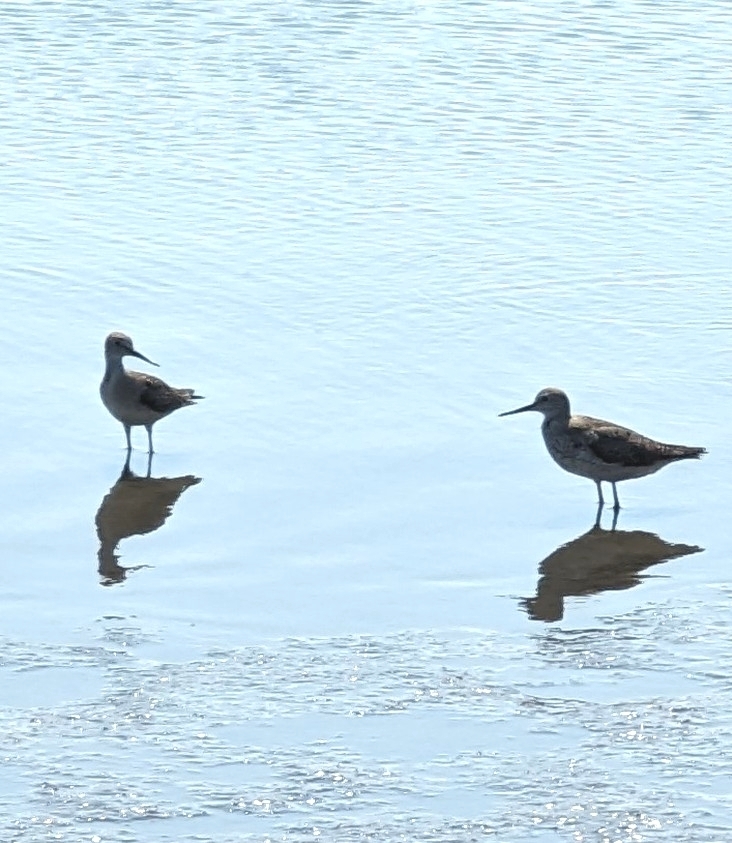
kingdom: Animalia
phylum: Chordata
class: Aves
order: Charadriiformes
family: Scolopacidae
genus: Tringa
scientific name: Tringa flavipes
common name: Lesser yellowlegs
